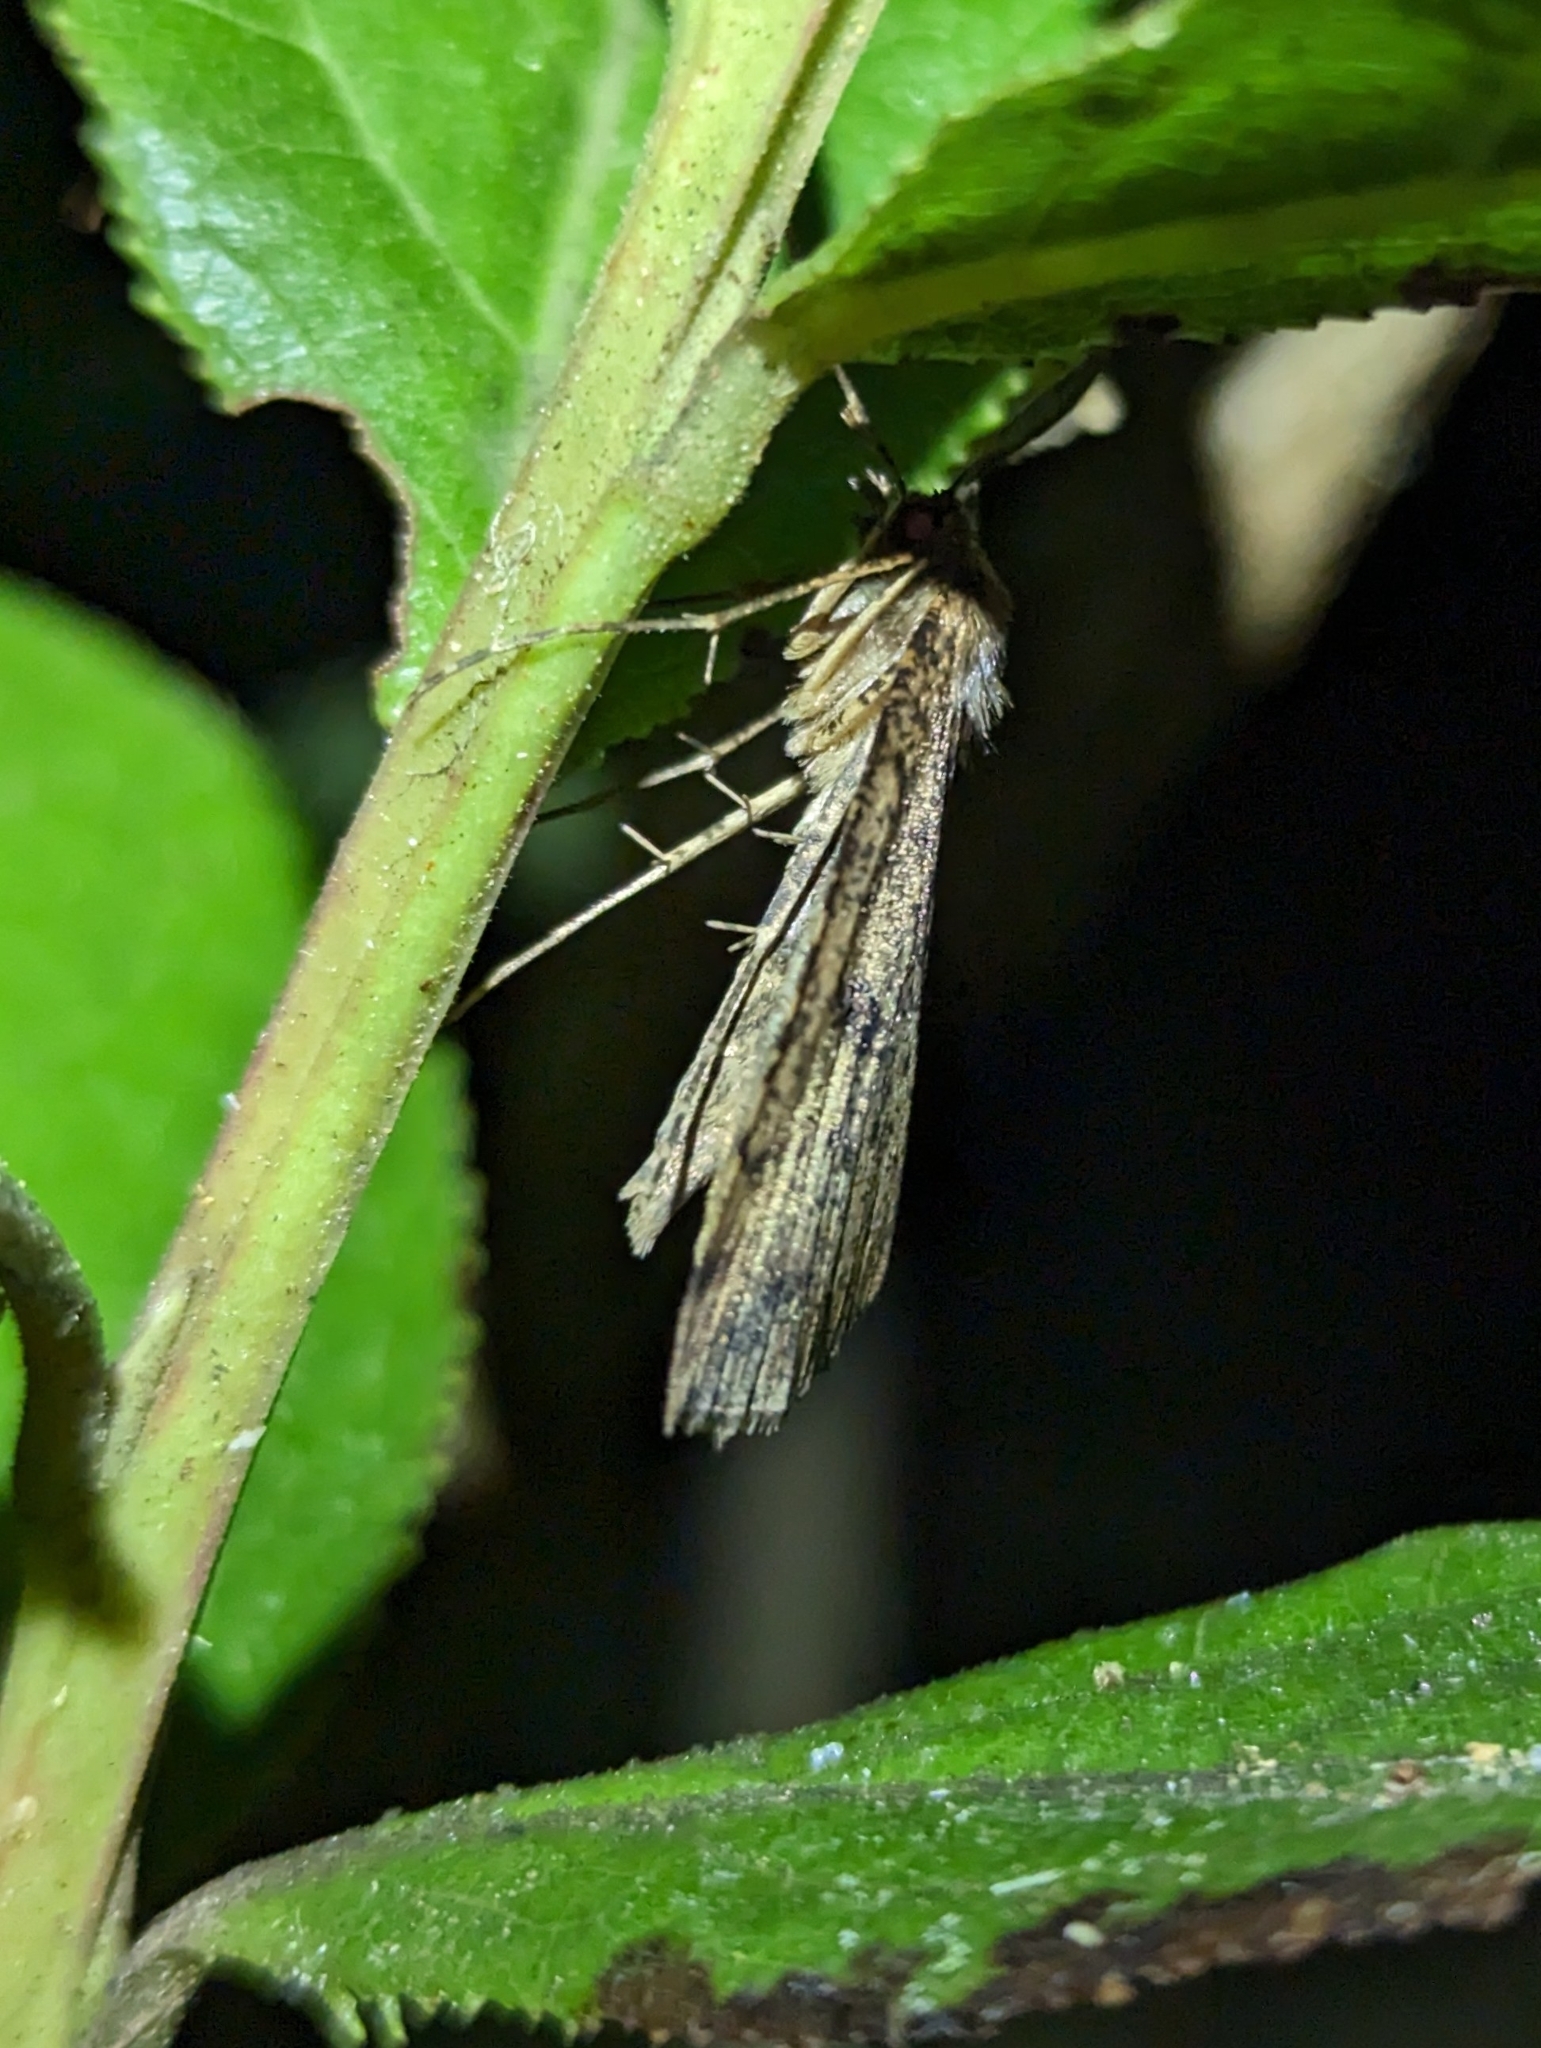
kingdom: Animalia
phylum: Arthropoda
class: Insecta
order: Lepidoptera
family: Geometridae
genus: Scotorythra
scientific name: Scotorythra paludicola
